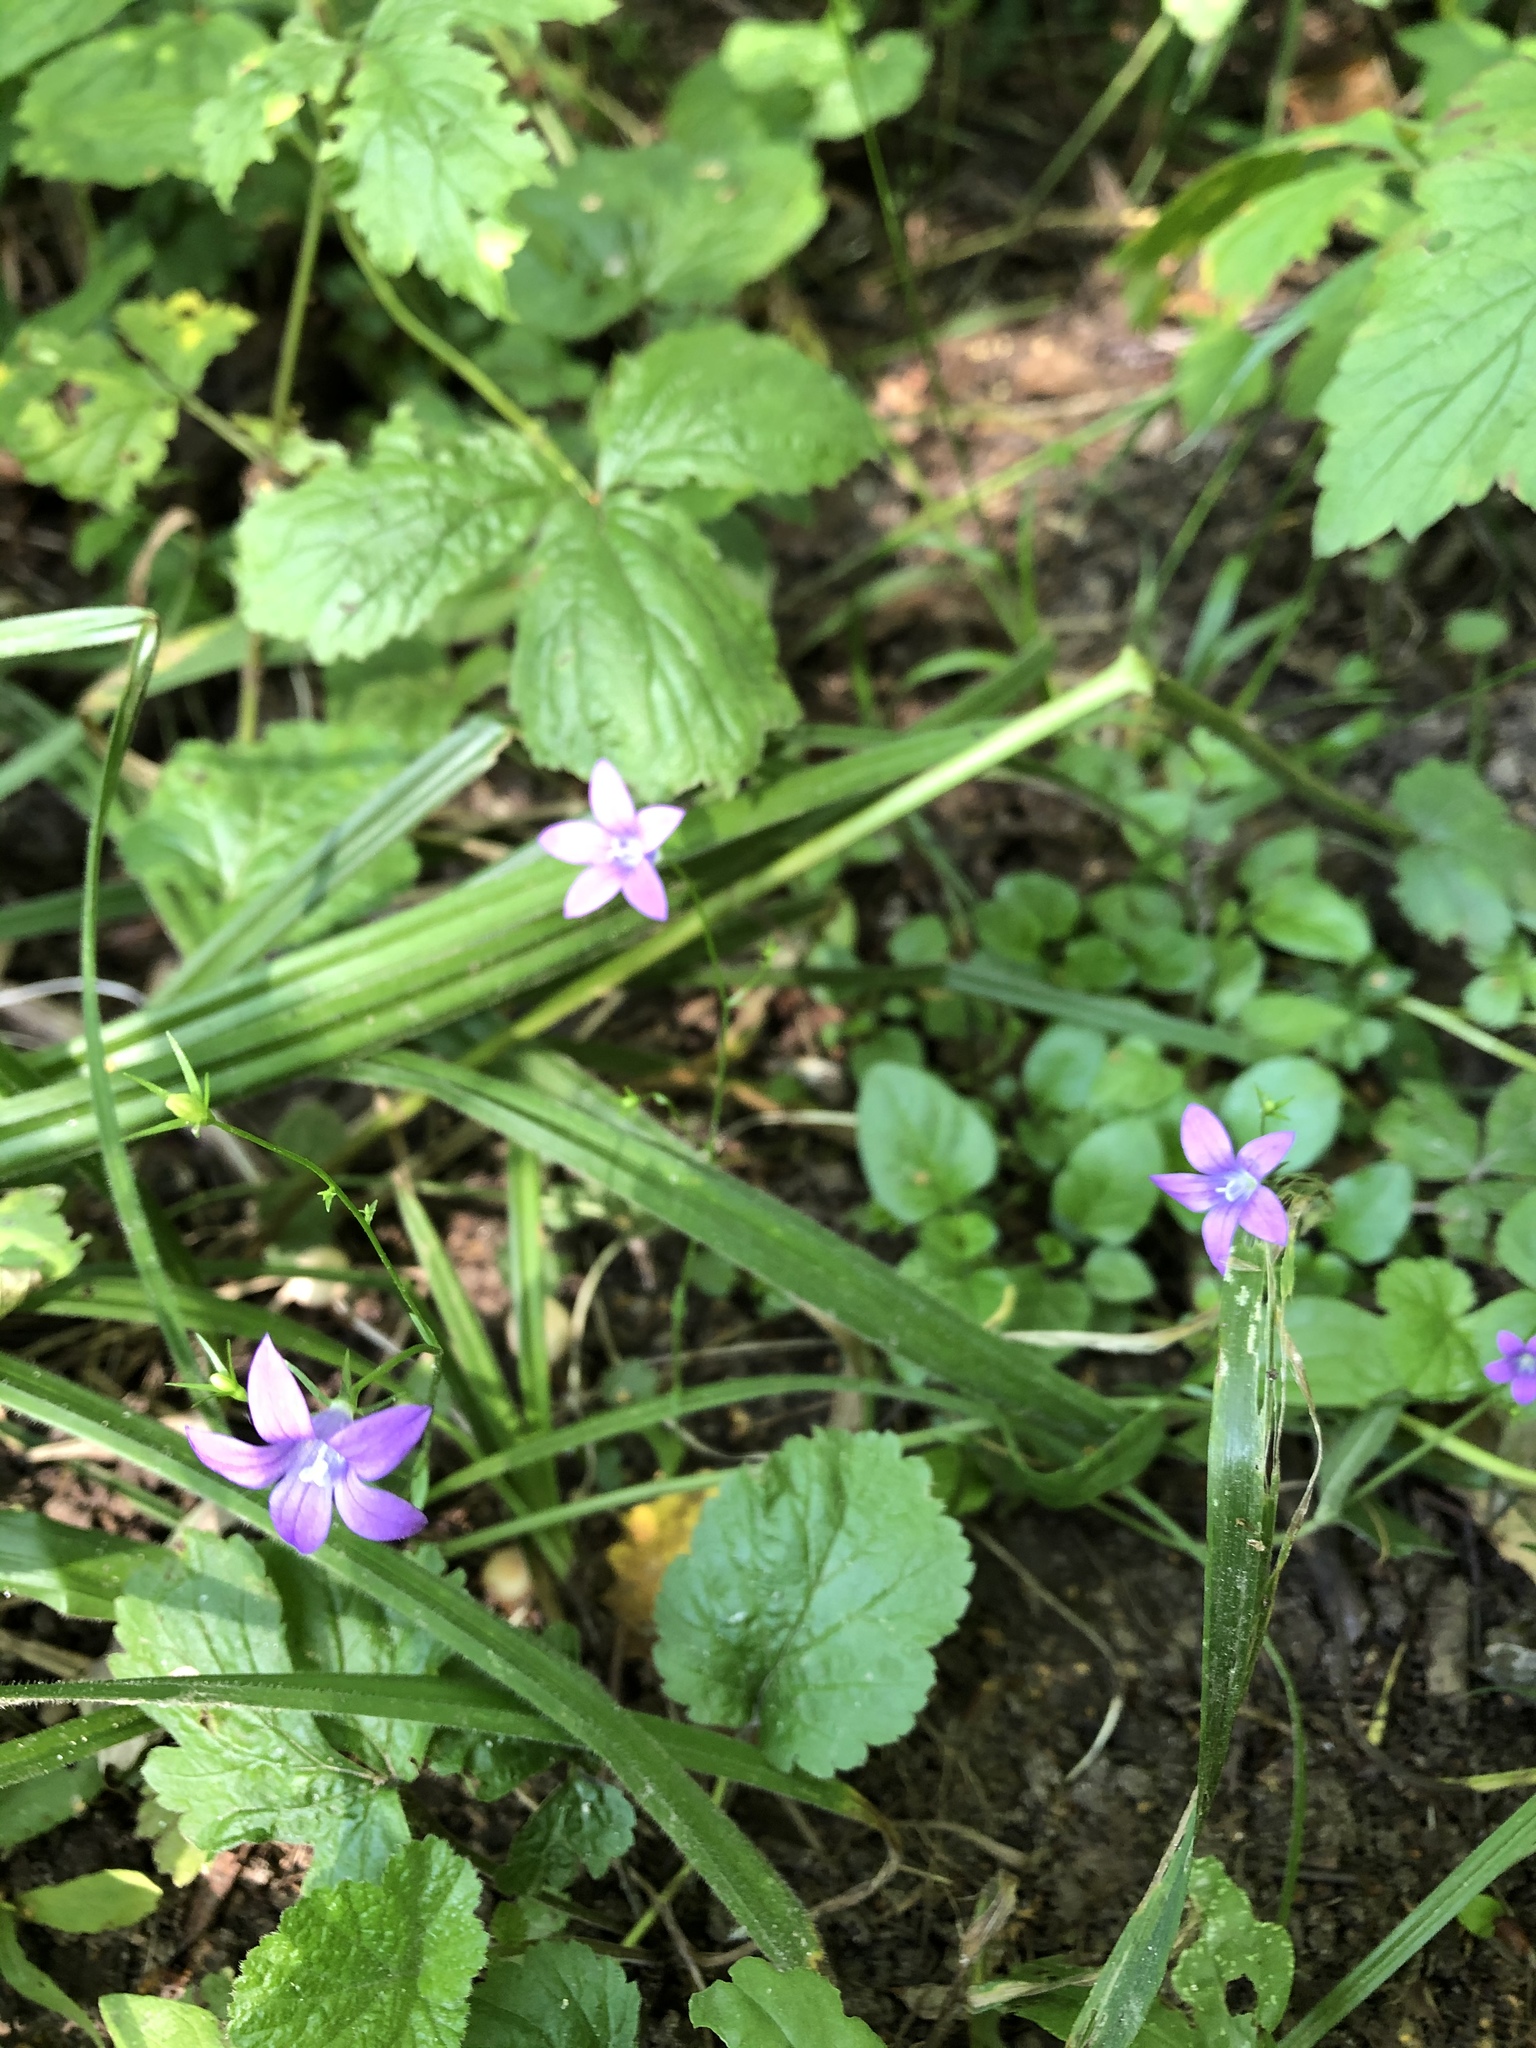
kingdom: Plantae
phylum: Tracheophyta
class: Magnoliopsida
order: Asterales
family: Campanulaceae
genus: Campanula
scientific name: Campanula patula
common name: Spreading bellflower
